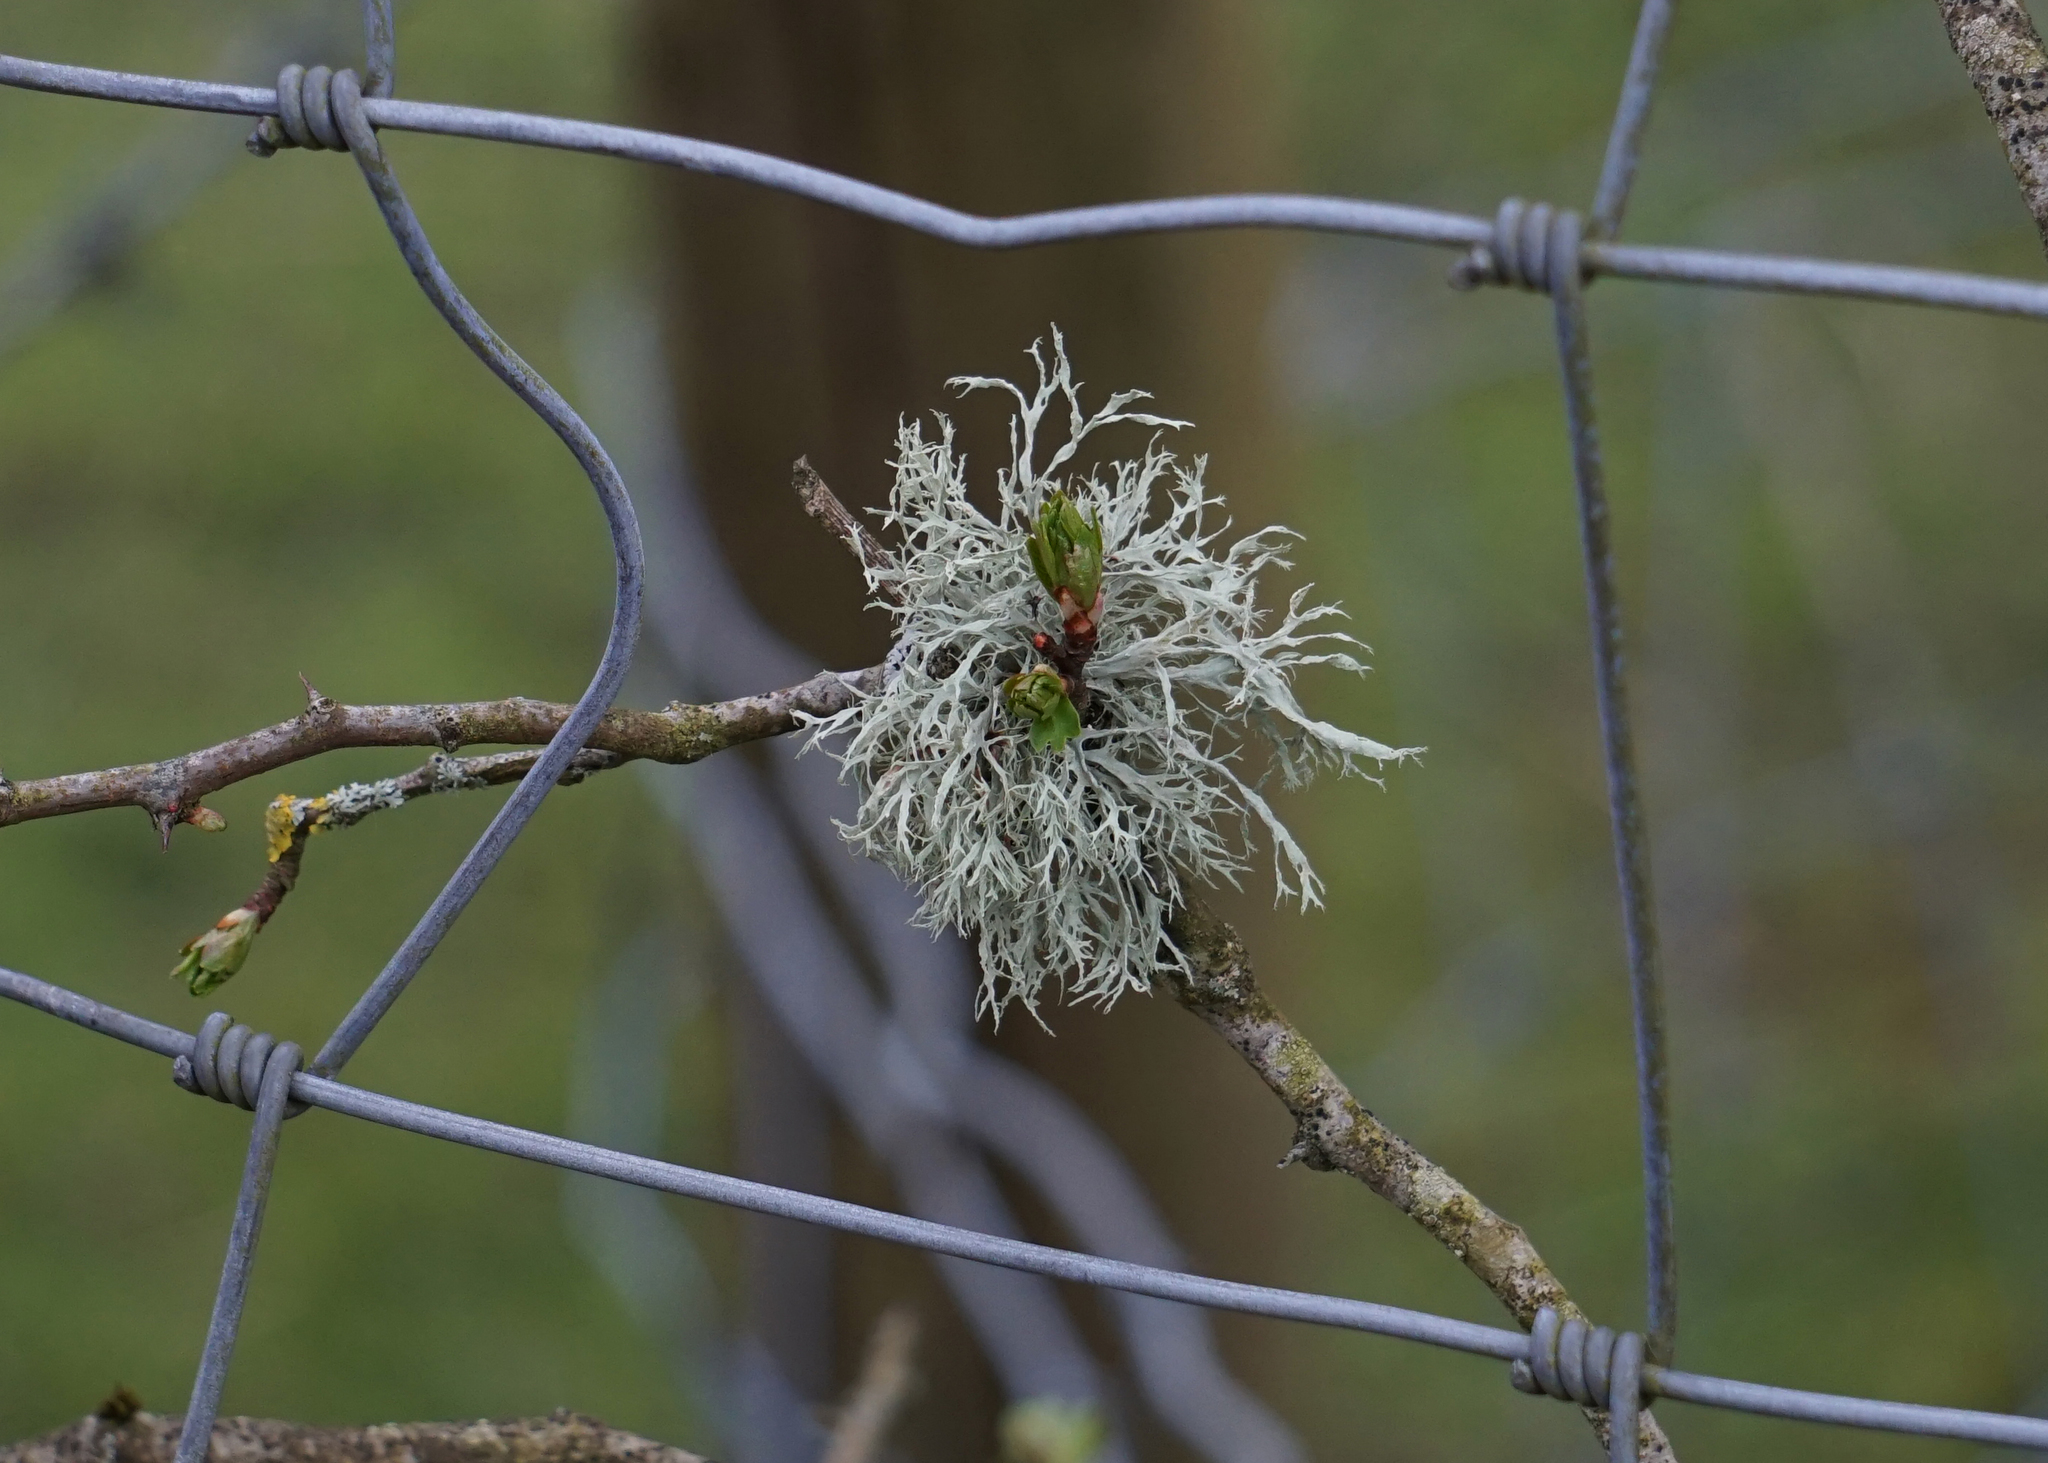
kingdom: Fungi
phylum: Ascomycota
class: Lecanoromycetes
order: Lecanorales
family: Ramalinaceae
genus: Ramalina
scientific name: Ramalina farinacea
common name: Farinose cartilage lichen
